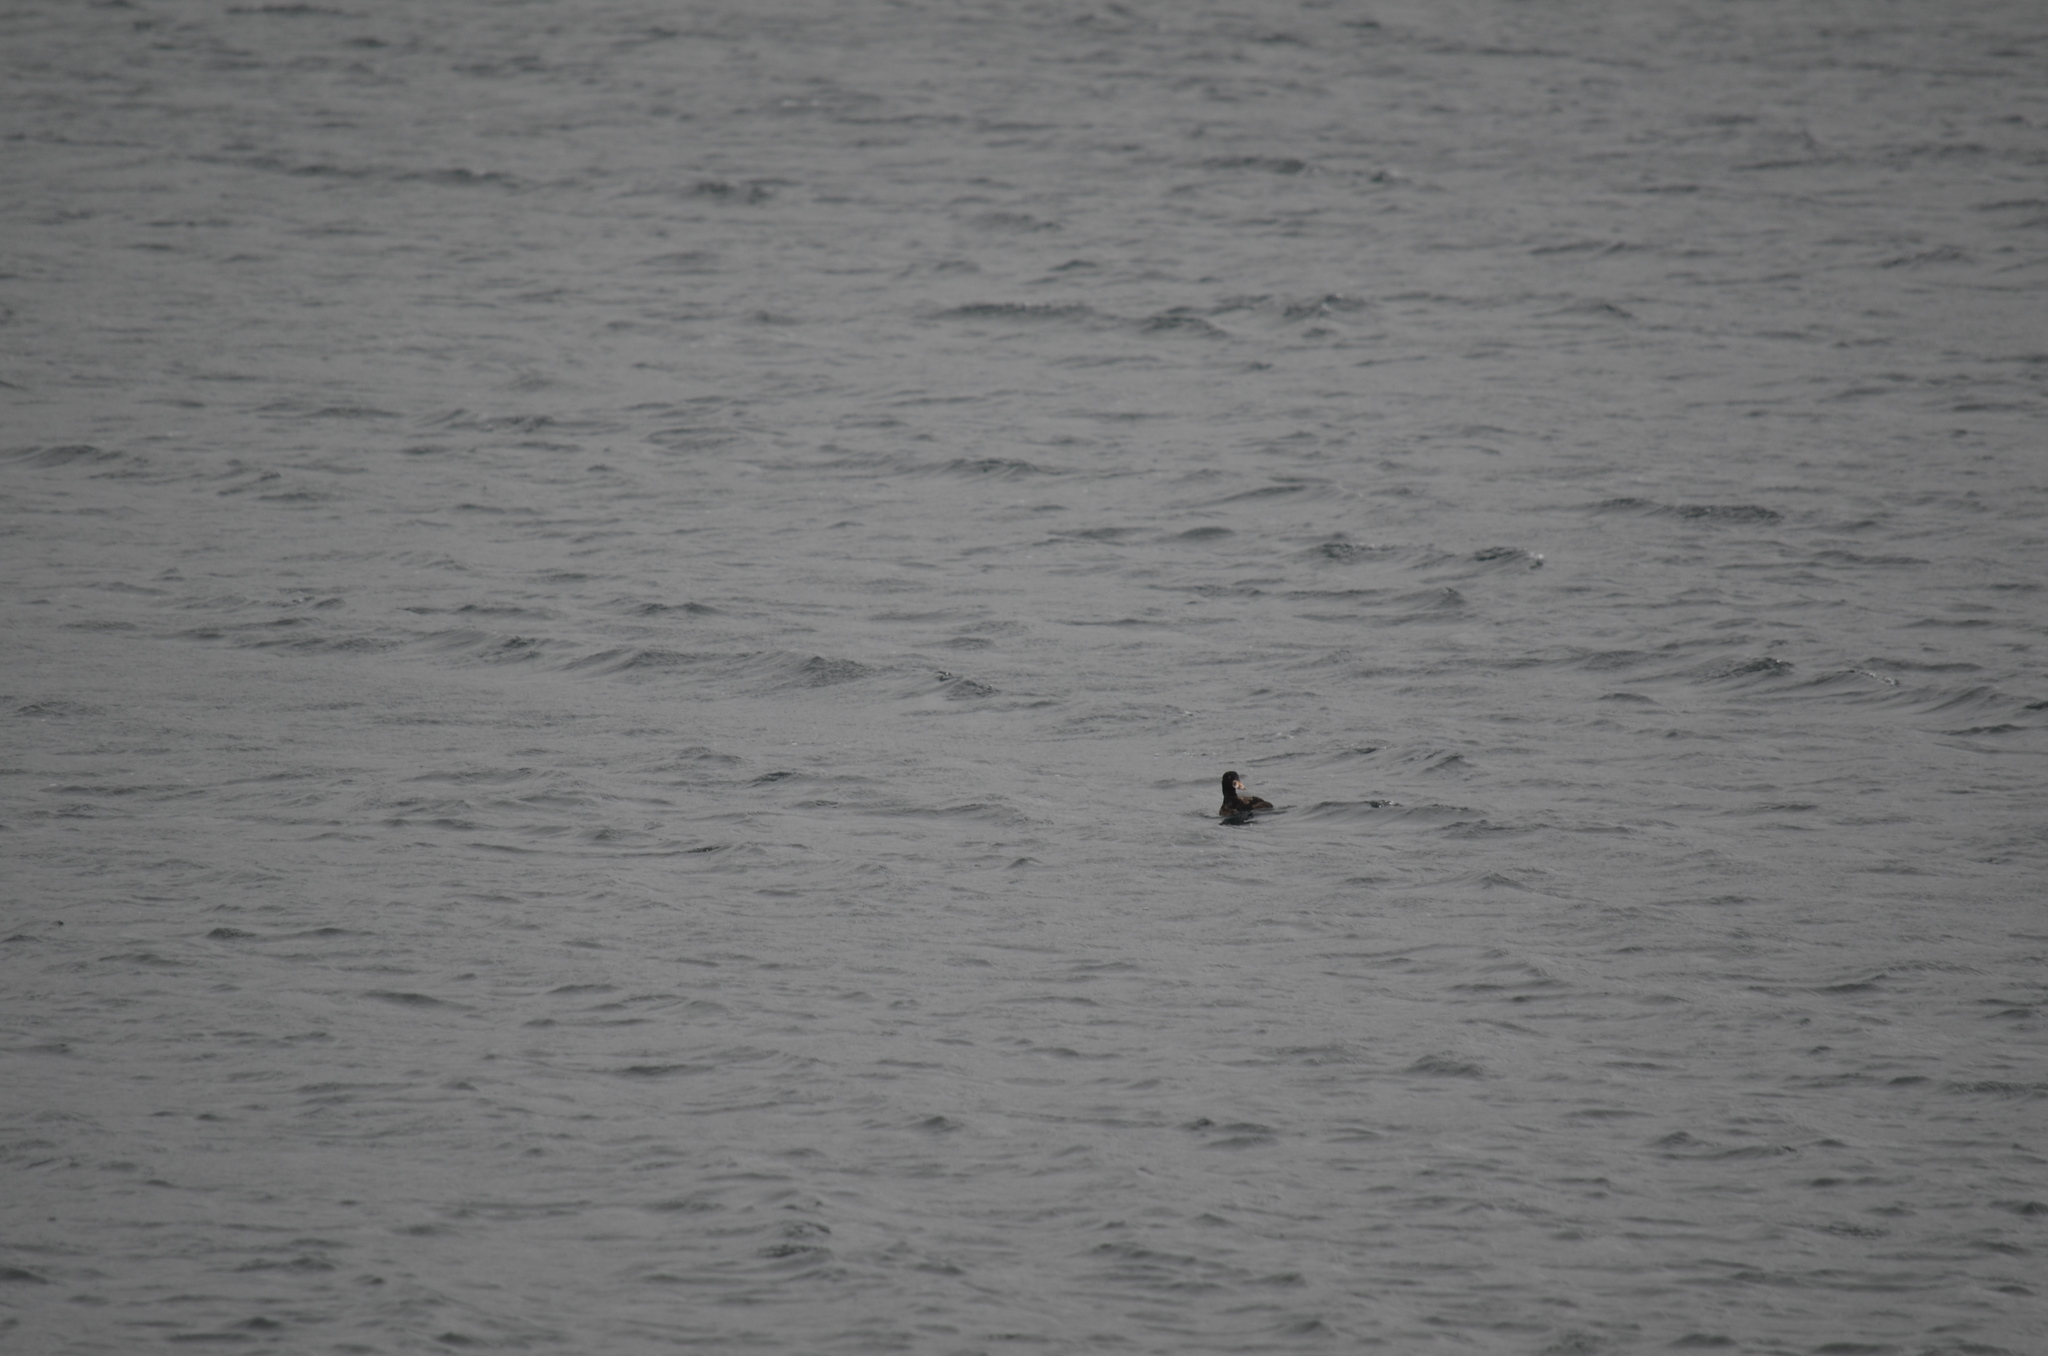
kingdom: Animalia
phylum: Chordata
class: Aves
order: Anseriformes
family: Anatidae
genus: Melanitta
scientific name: Melanitta perspicillata
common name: Surf scoter
